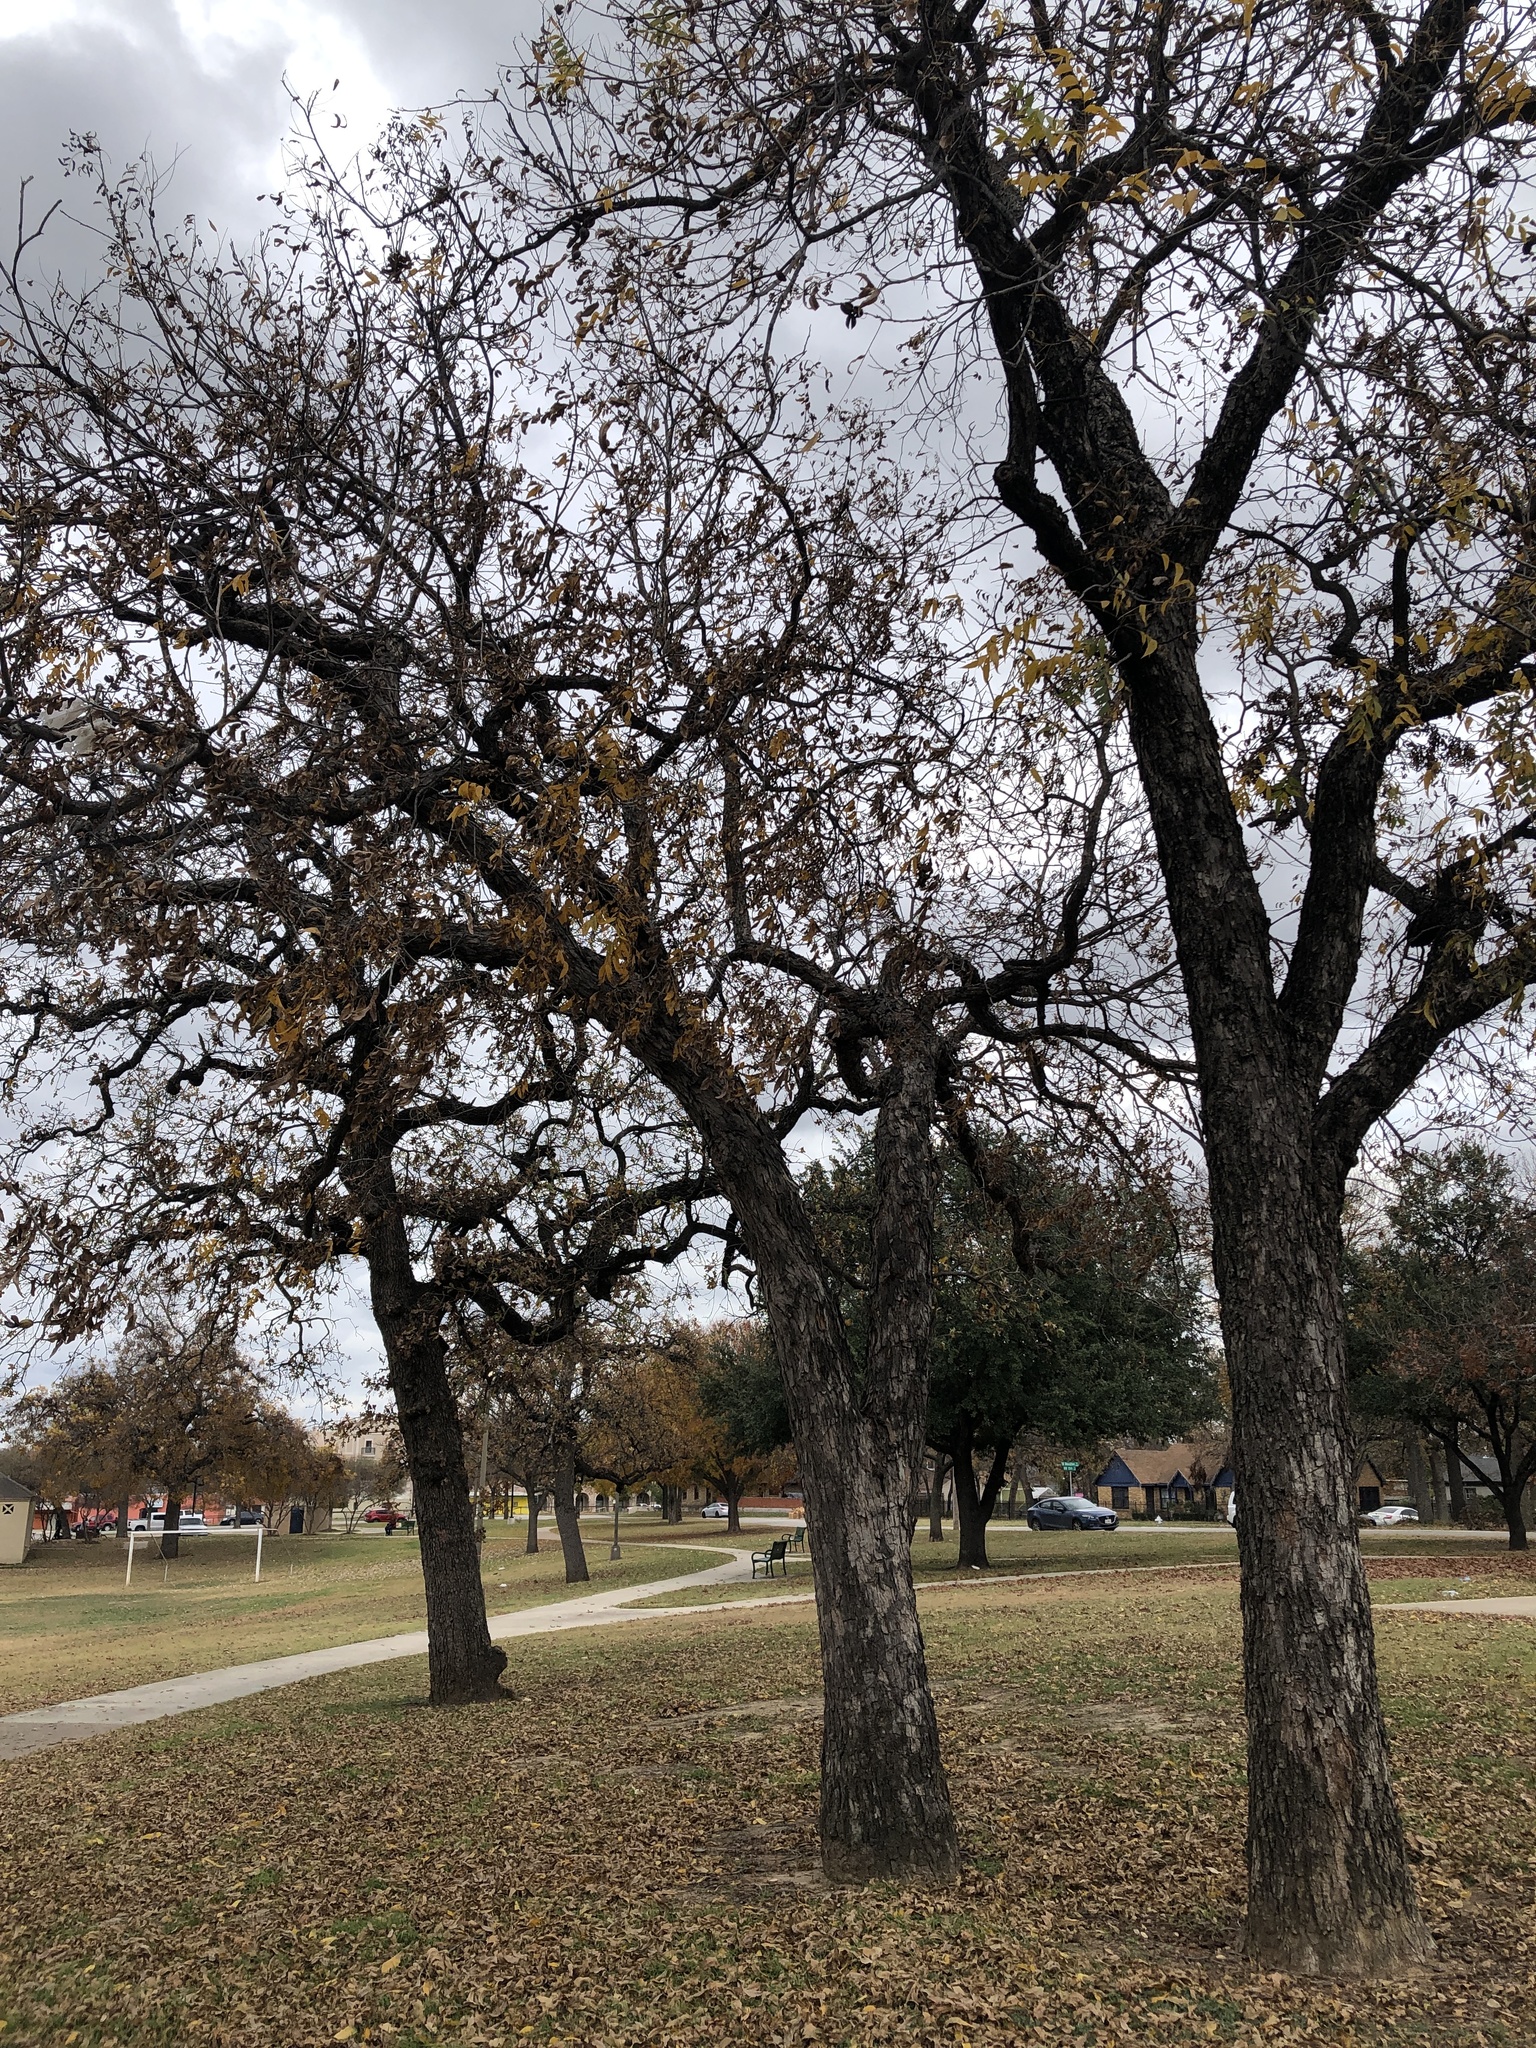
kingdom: Plantae
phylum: Tracheophyta
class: Magnoliopsida
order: Fagales
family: Juglandaceae
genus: Carya
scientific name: Carya illinoinensis
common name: Pecan
